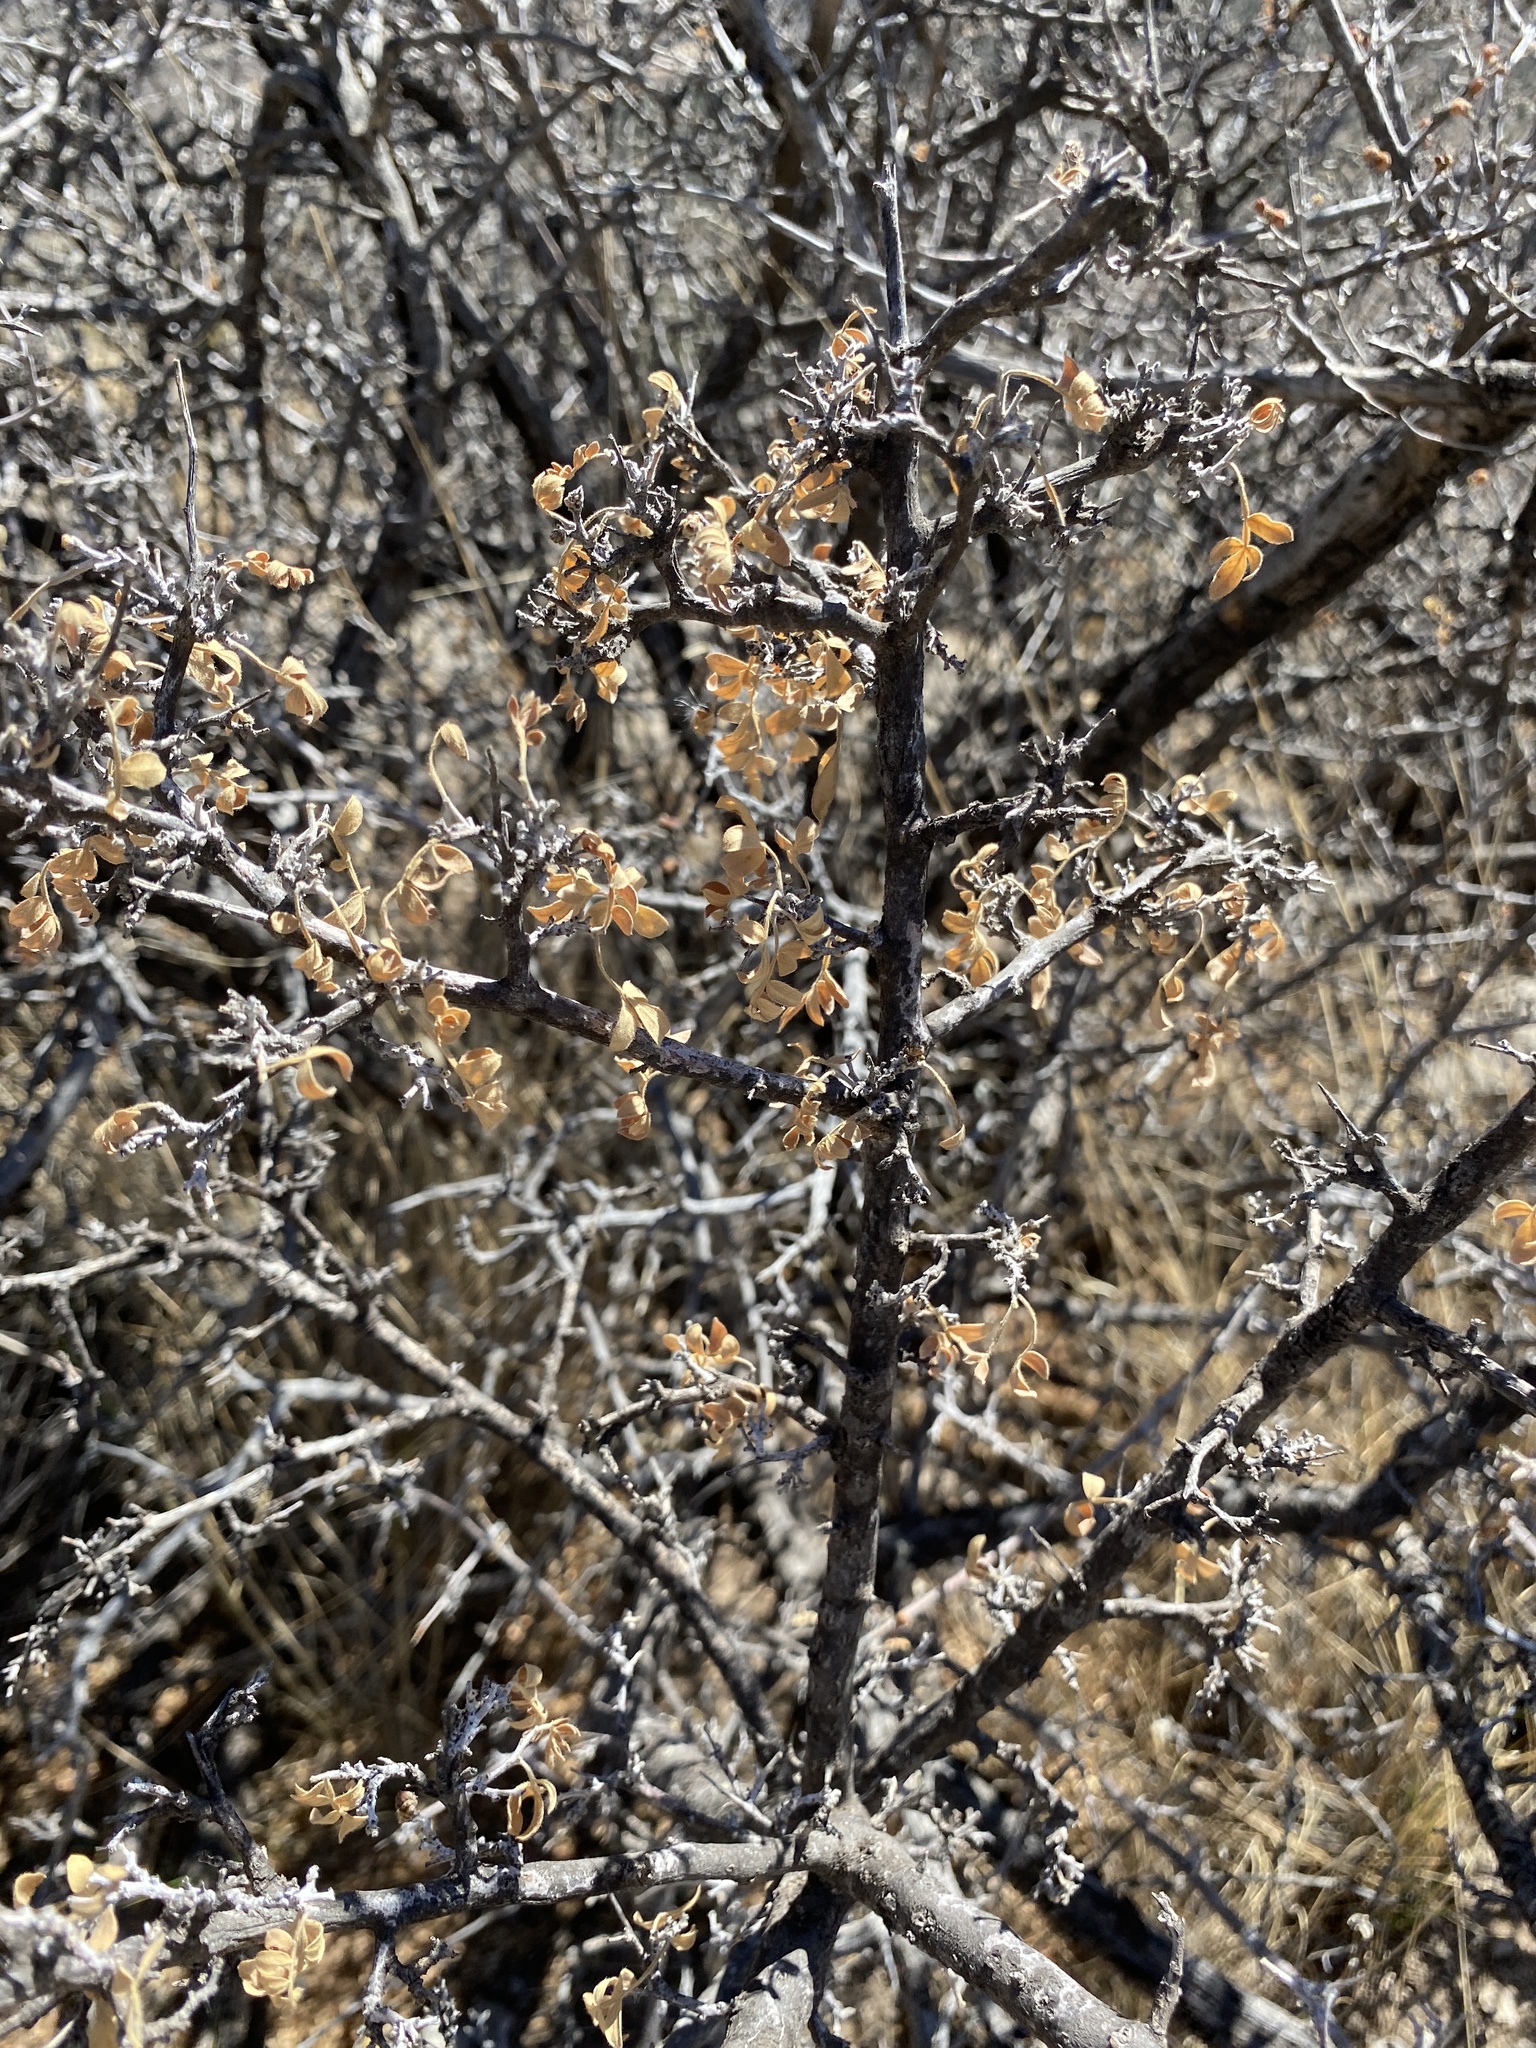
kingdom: Plantae
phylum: Tracheophyta
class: Magnoliopsida
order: Sapindales
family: Anacardiaceae
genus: Rhus
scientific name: Rhus microphylla
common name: Desert sumac
